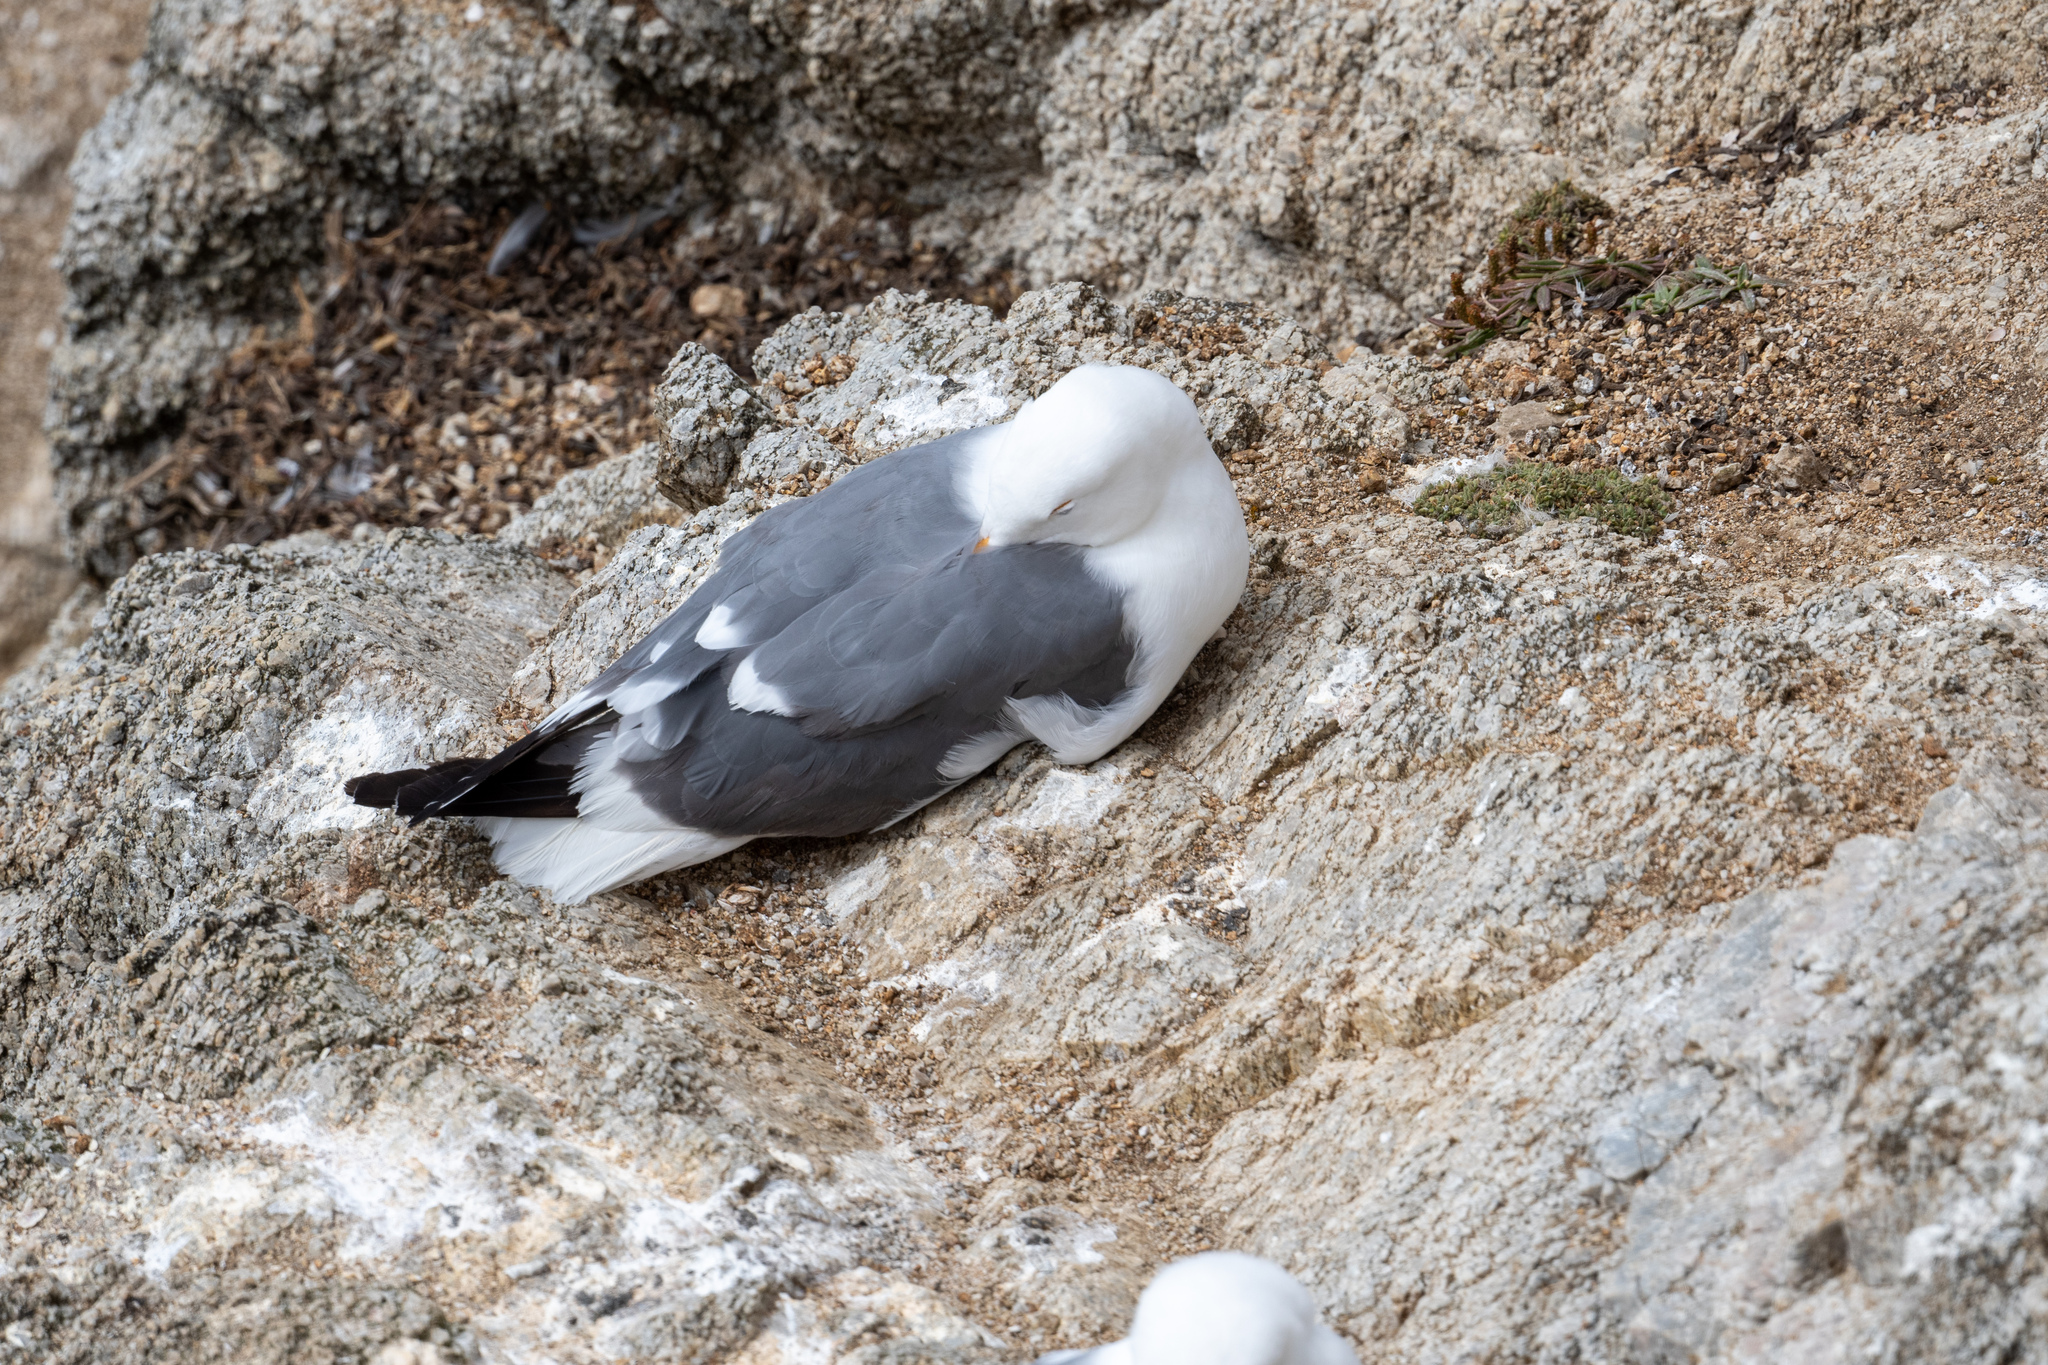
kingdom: Animalia
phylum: Chordata
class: Aves
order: Charadriiformes
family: Laridae
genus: Larus
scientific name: Larus occidentalis
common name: Western gull
